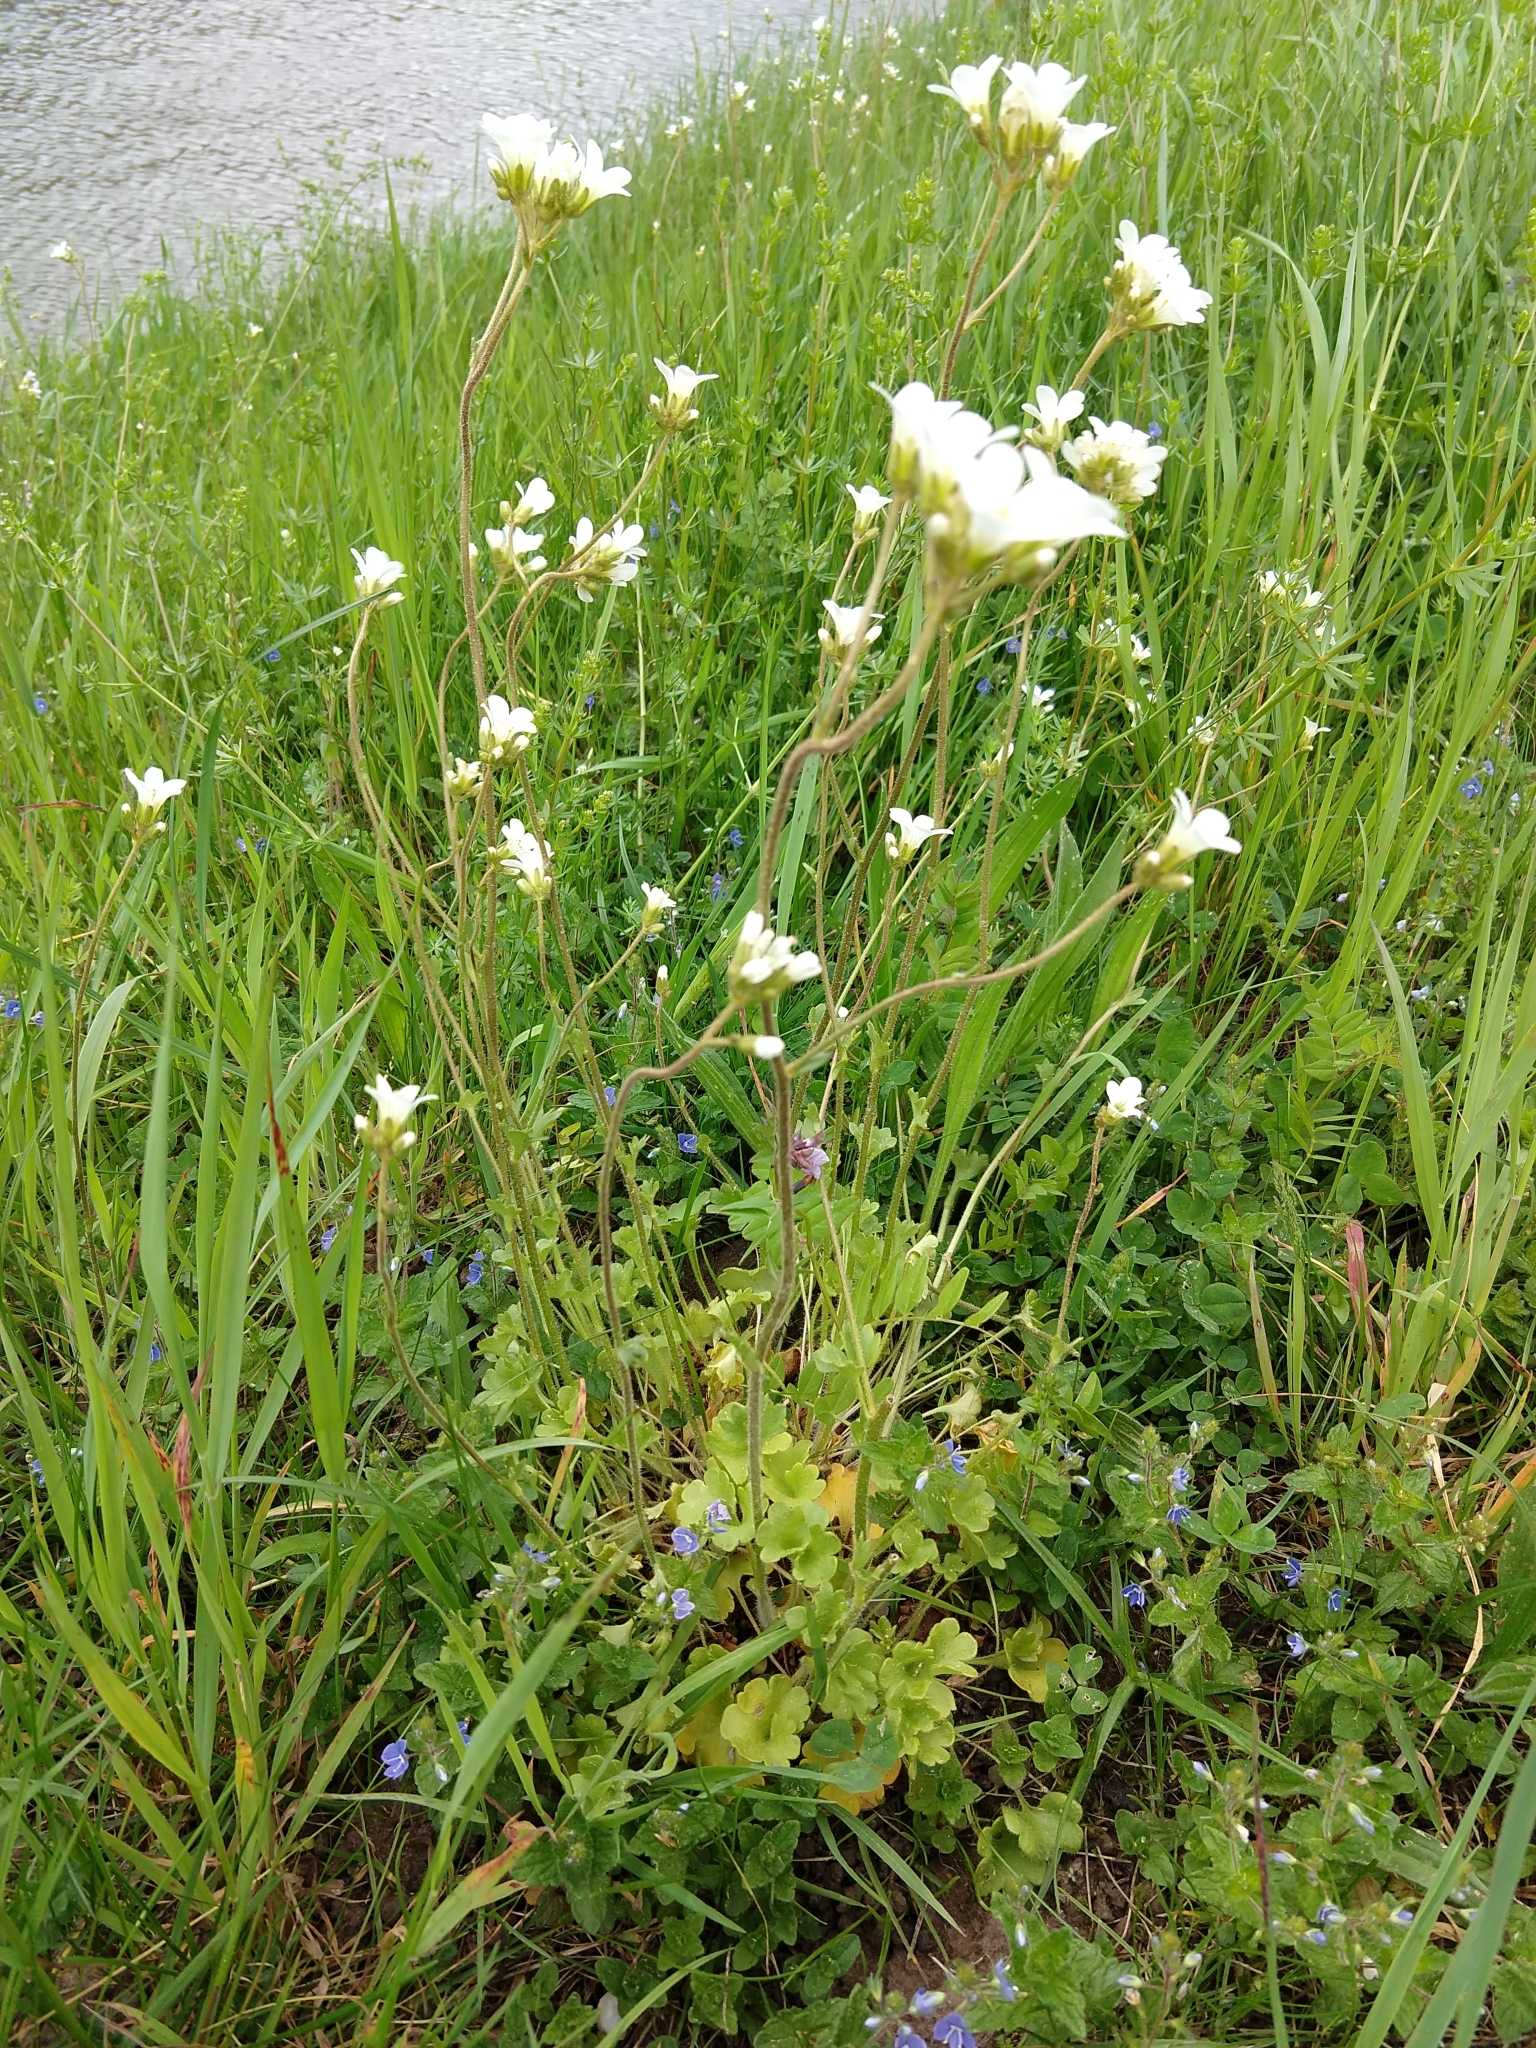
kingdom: Plantae
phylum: Tracheophyta
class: Magnoliopsida
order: Saxifragales
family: Saxifragaceae
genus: Saxifraga
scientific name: Saxifraga granulata
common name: Meadow saxifrage
